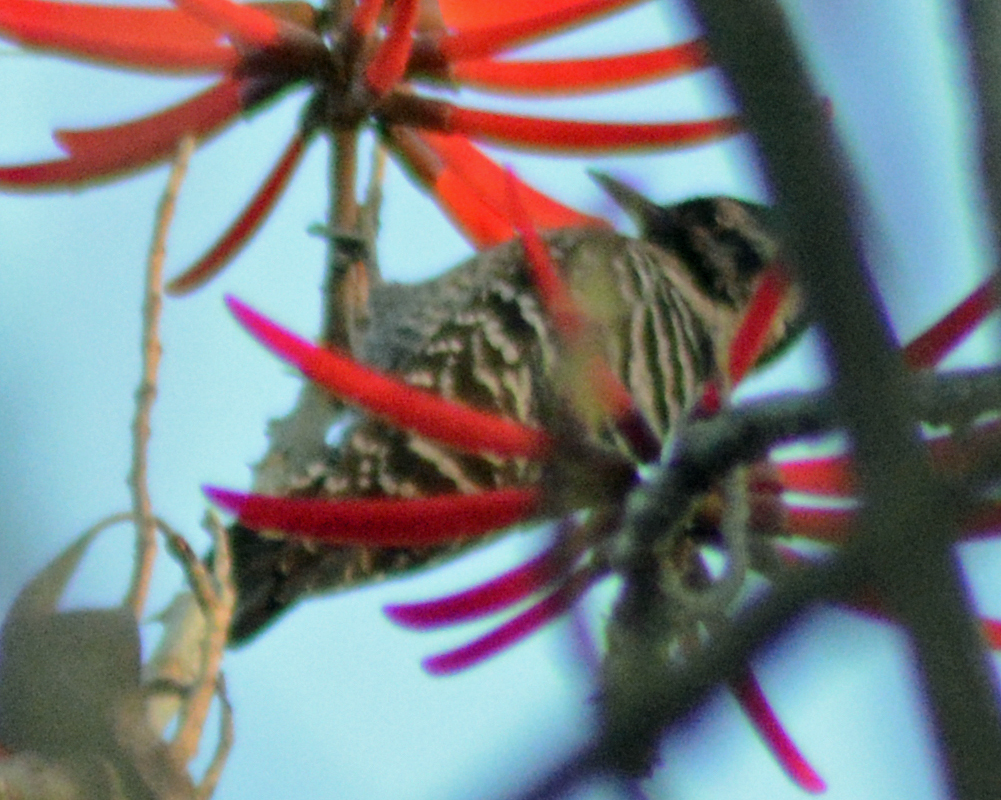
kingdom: Animalia
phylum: Chordata
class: Aves
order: Piciformes
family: Picidae
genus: Dryobates
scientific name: Dryobates scalaris
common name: Ladder-backed woodpecker
